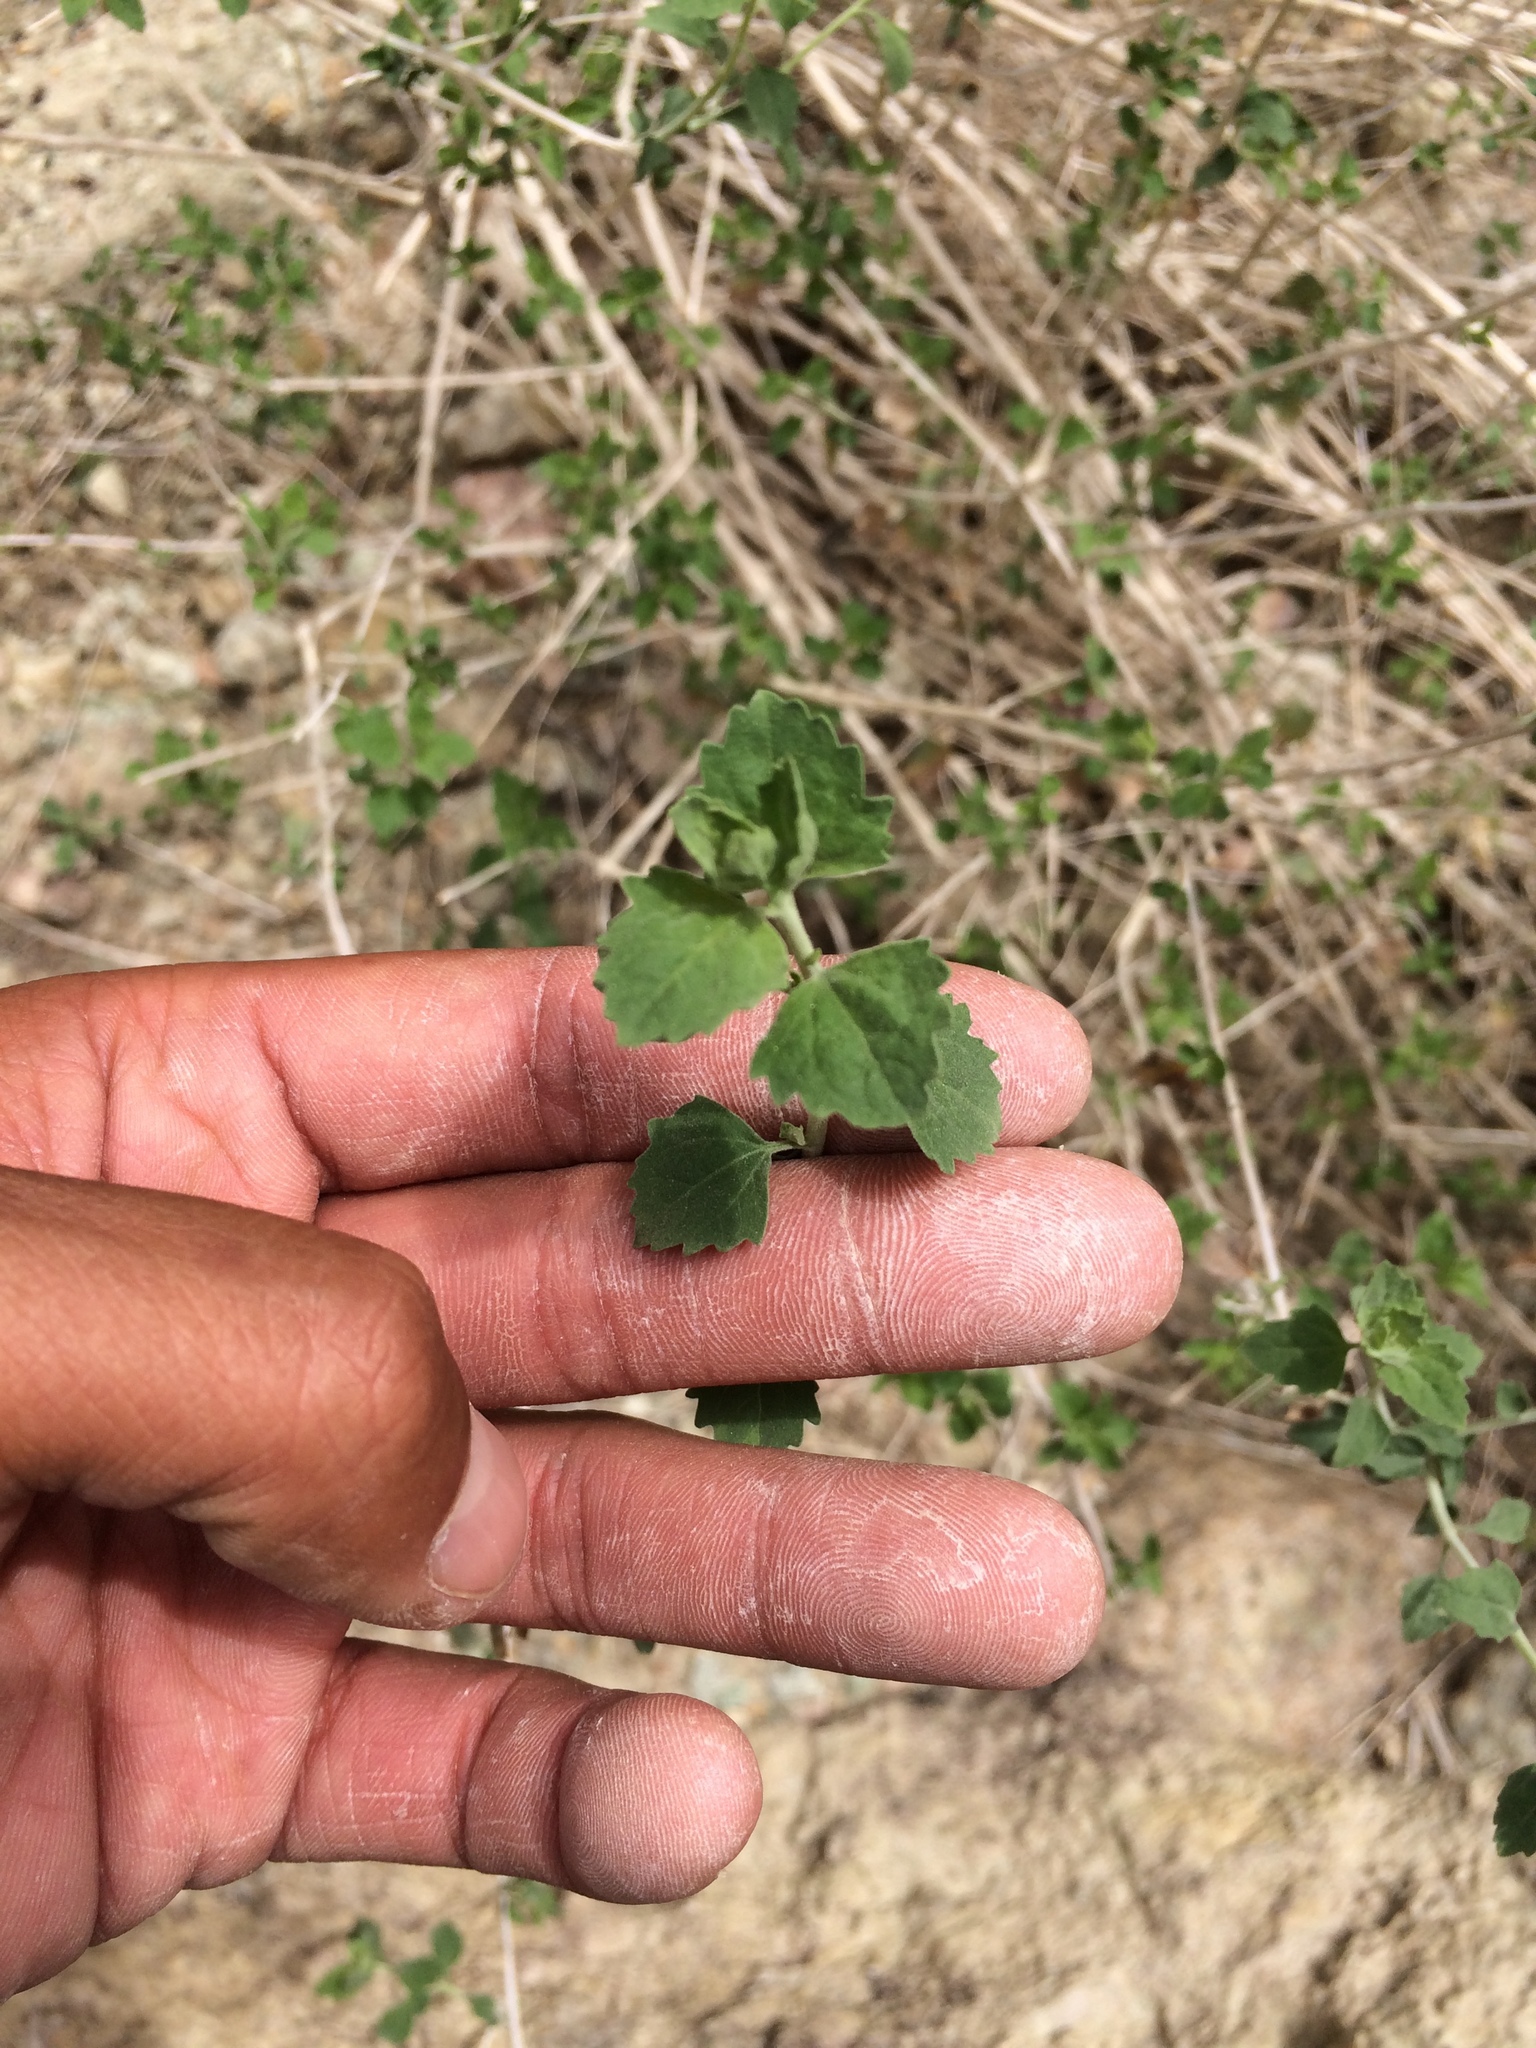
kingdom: Plantae
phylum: Tracheophyta
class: Magnoliopsida
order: Asterales
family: Asteraceae
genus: Brickellia
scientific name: Brickellia californica
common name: California brickellbush
